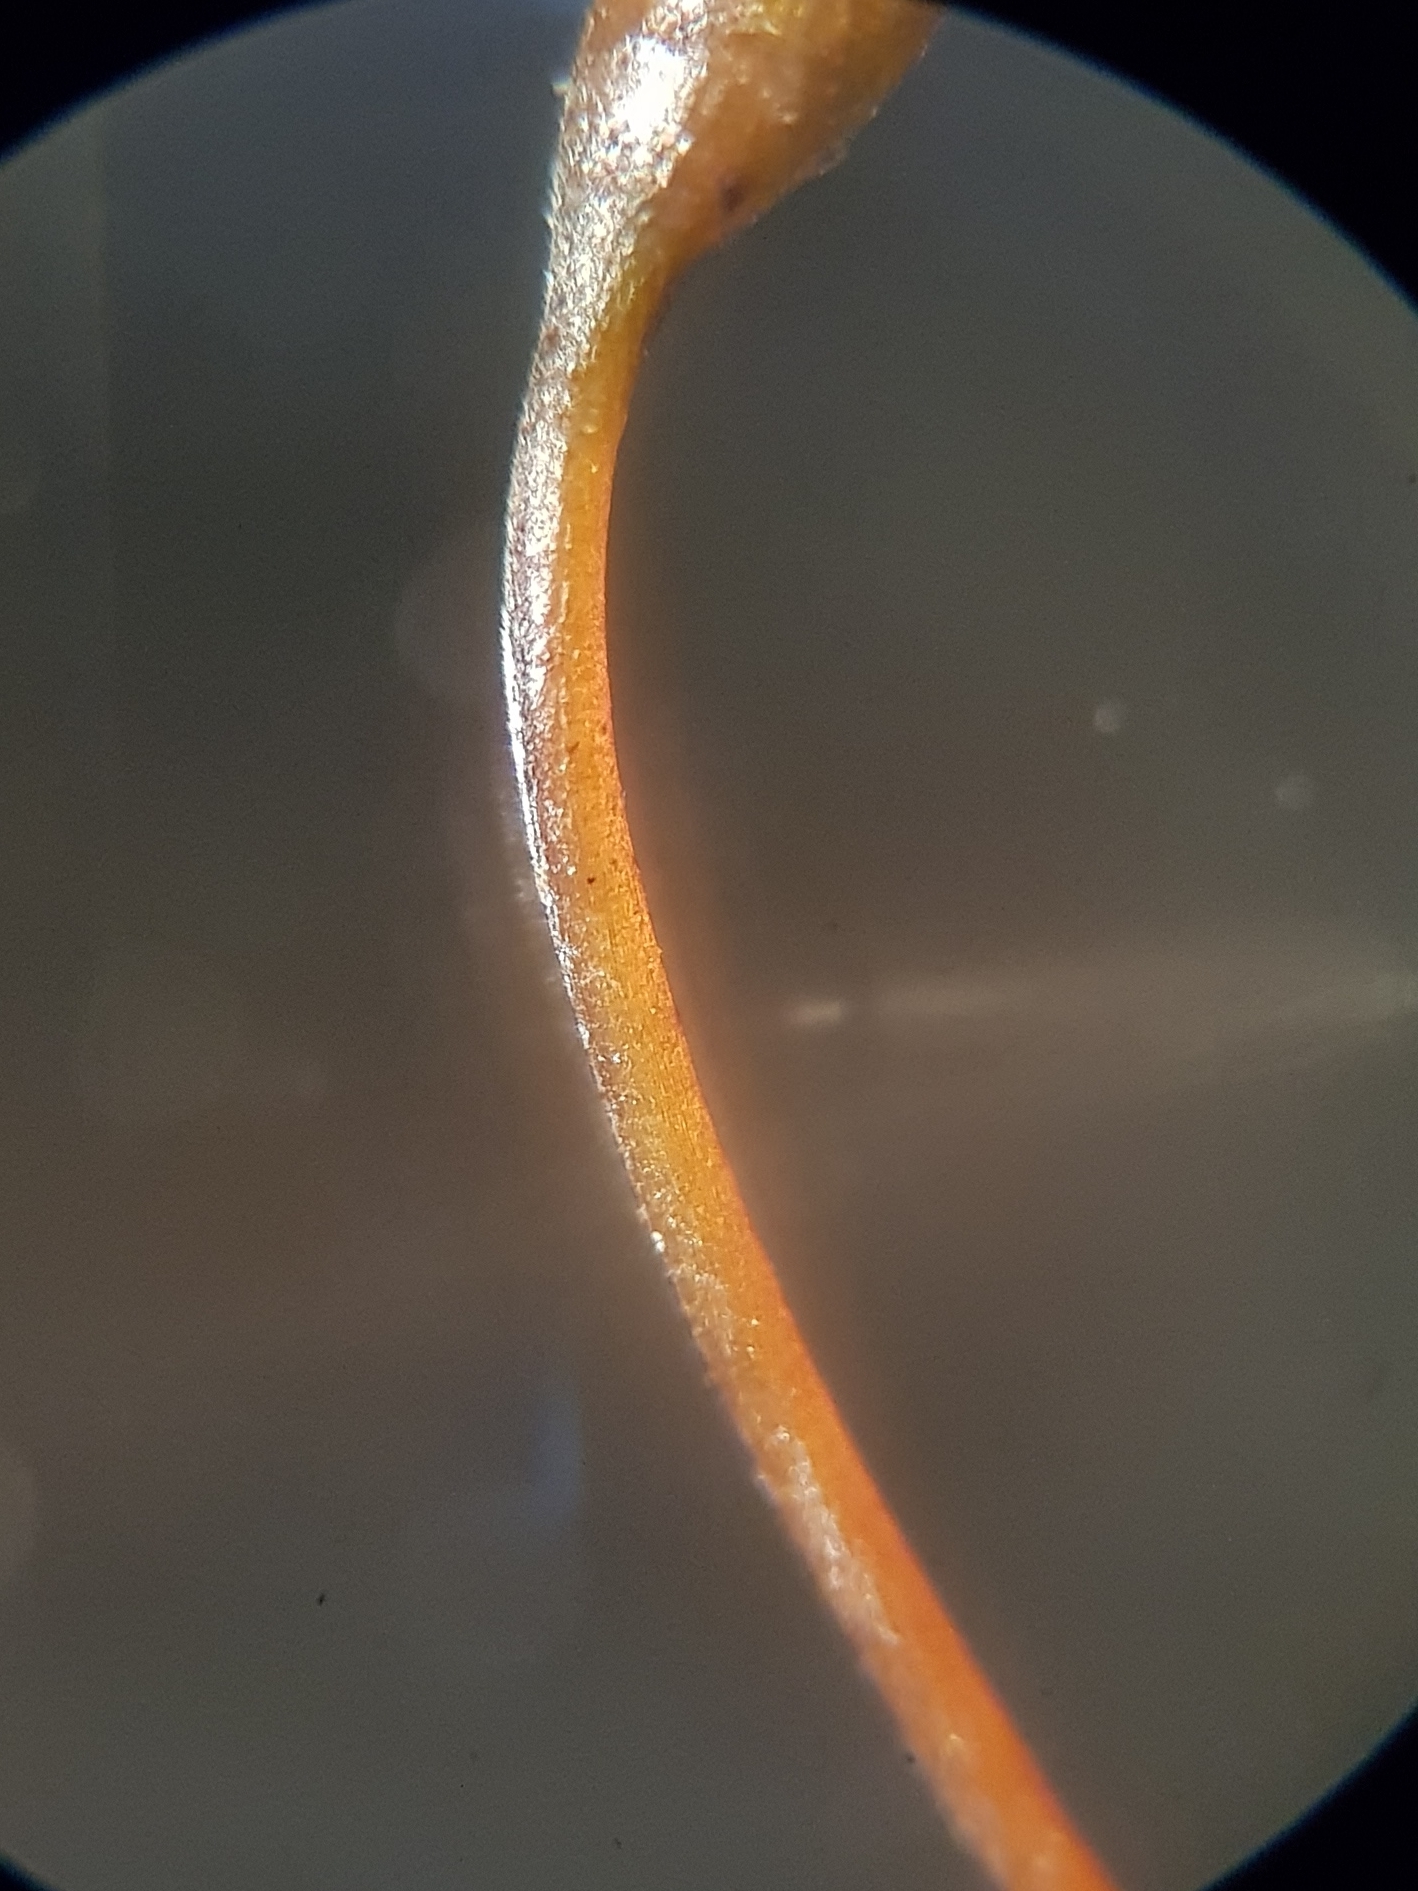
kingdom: Plantae
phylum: Bryophyta
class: Bryopsida
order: Hypnales
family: Brachytheciaceae
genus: Rhynchostegium
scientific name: Rhynchostegium riparioides
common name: Platyhypnidium moss
